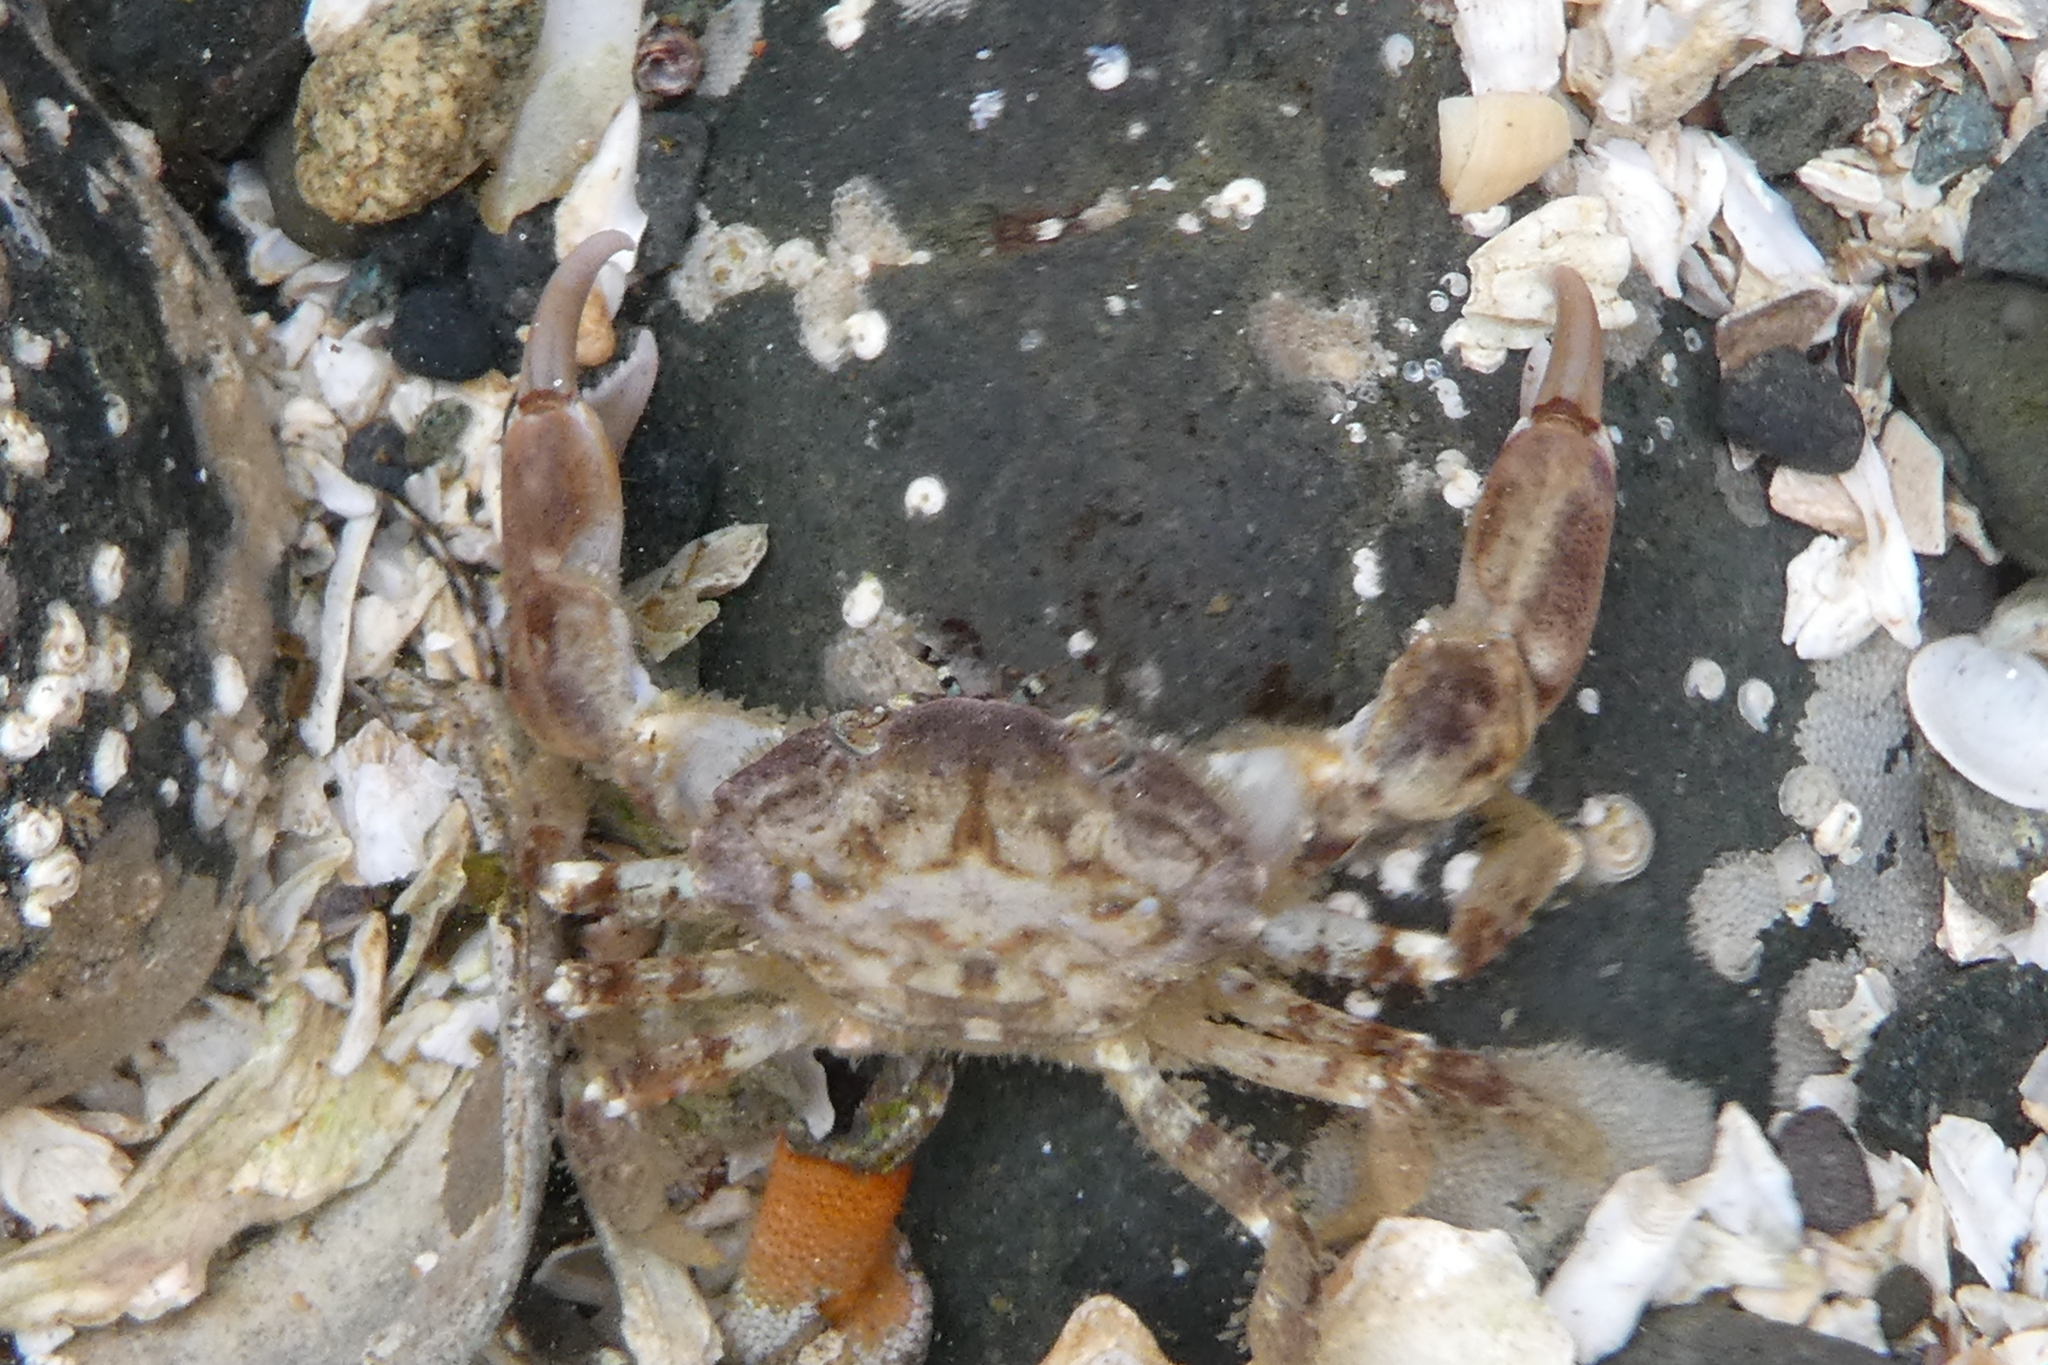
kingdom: Animalia
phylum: Arthropoda
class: Malacostraca
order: Decapoda
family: Panopeidae
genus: Lophopanopeus
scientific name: Lophopanopeus bellus
